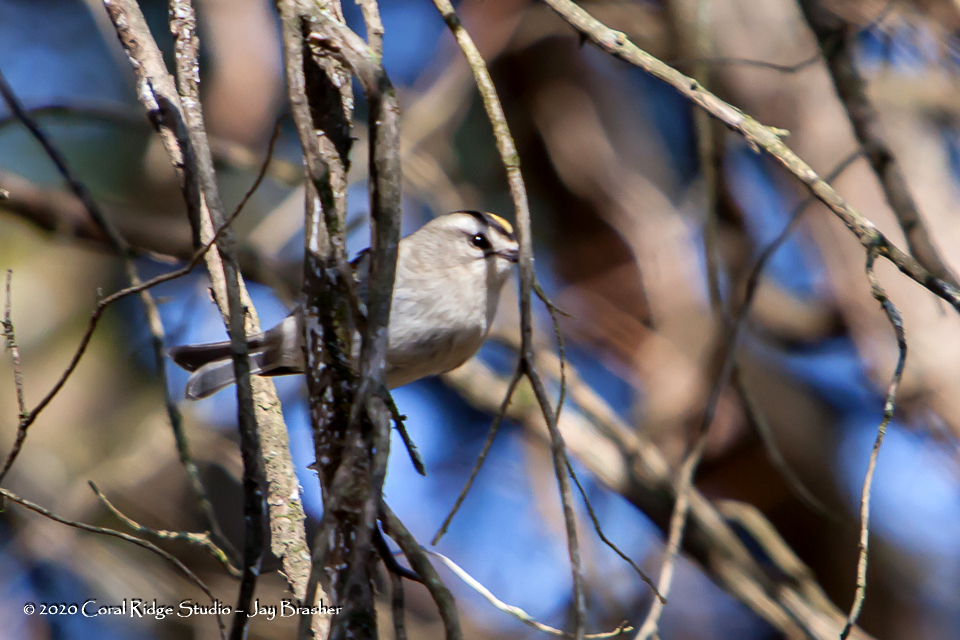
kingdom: Animalia
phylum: Chordata
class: Aves
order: Passeriformes
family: Regulidae
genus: Regulus
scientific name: Regulus satrapa
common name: Golden-crowned kinglet
